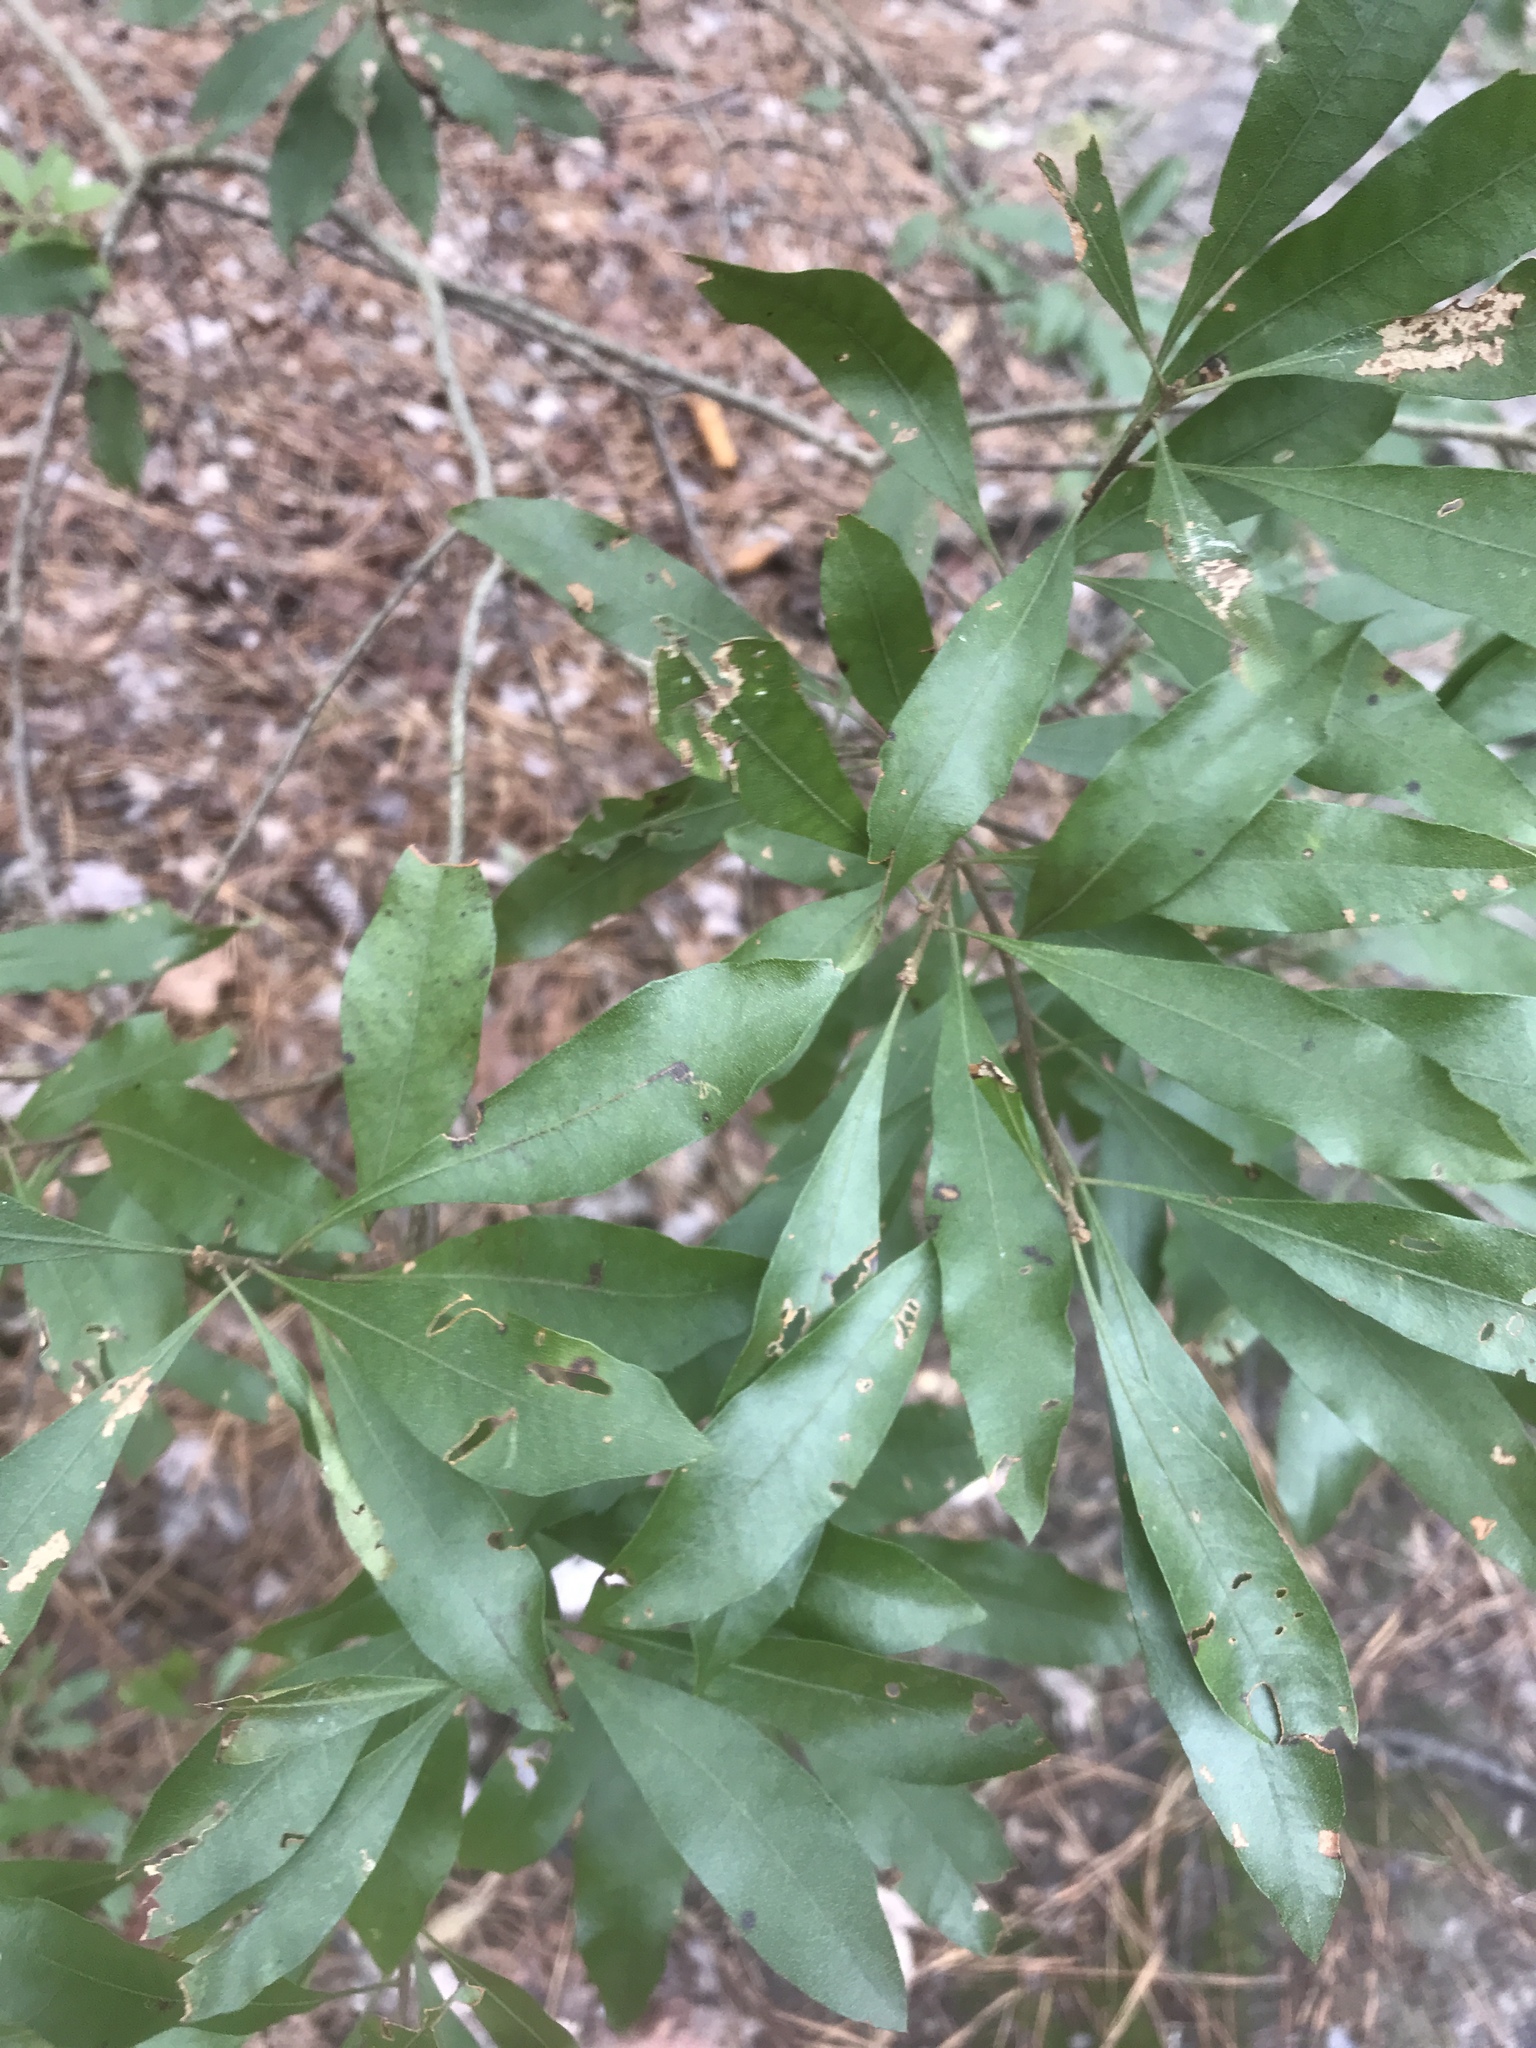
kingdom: Plantae
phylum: Tracheophyta
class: Magnoliopsida
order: Fagales
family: Myricaceae
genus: Morella
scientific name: Morella cerifera
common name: Wax myrtle
